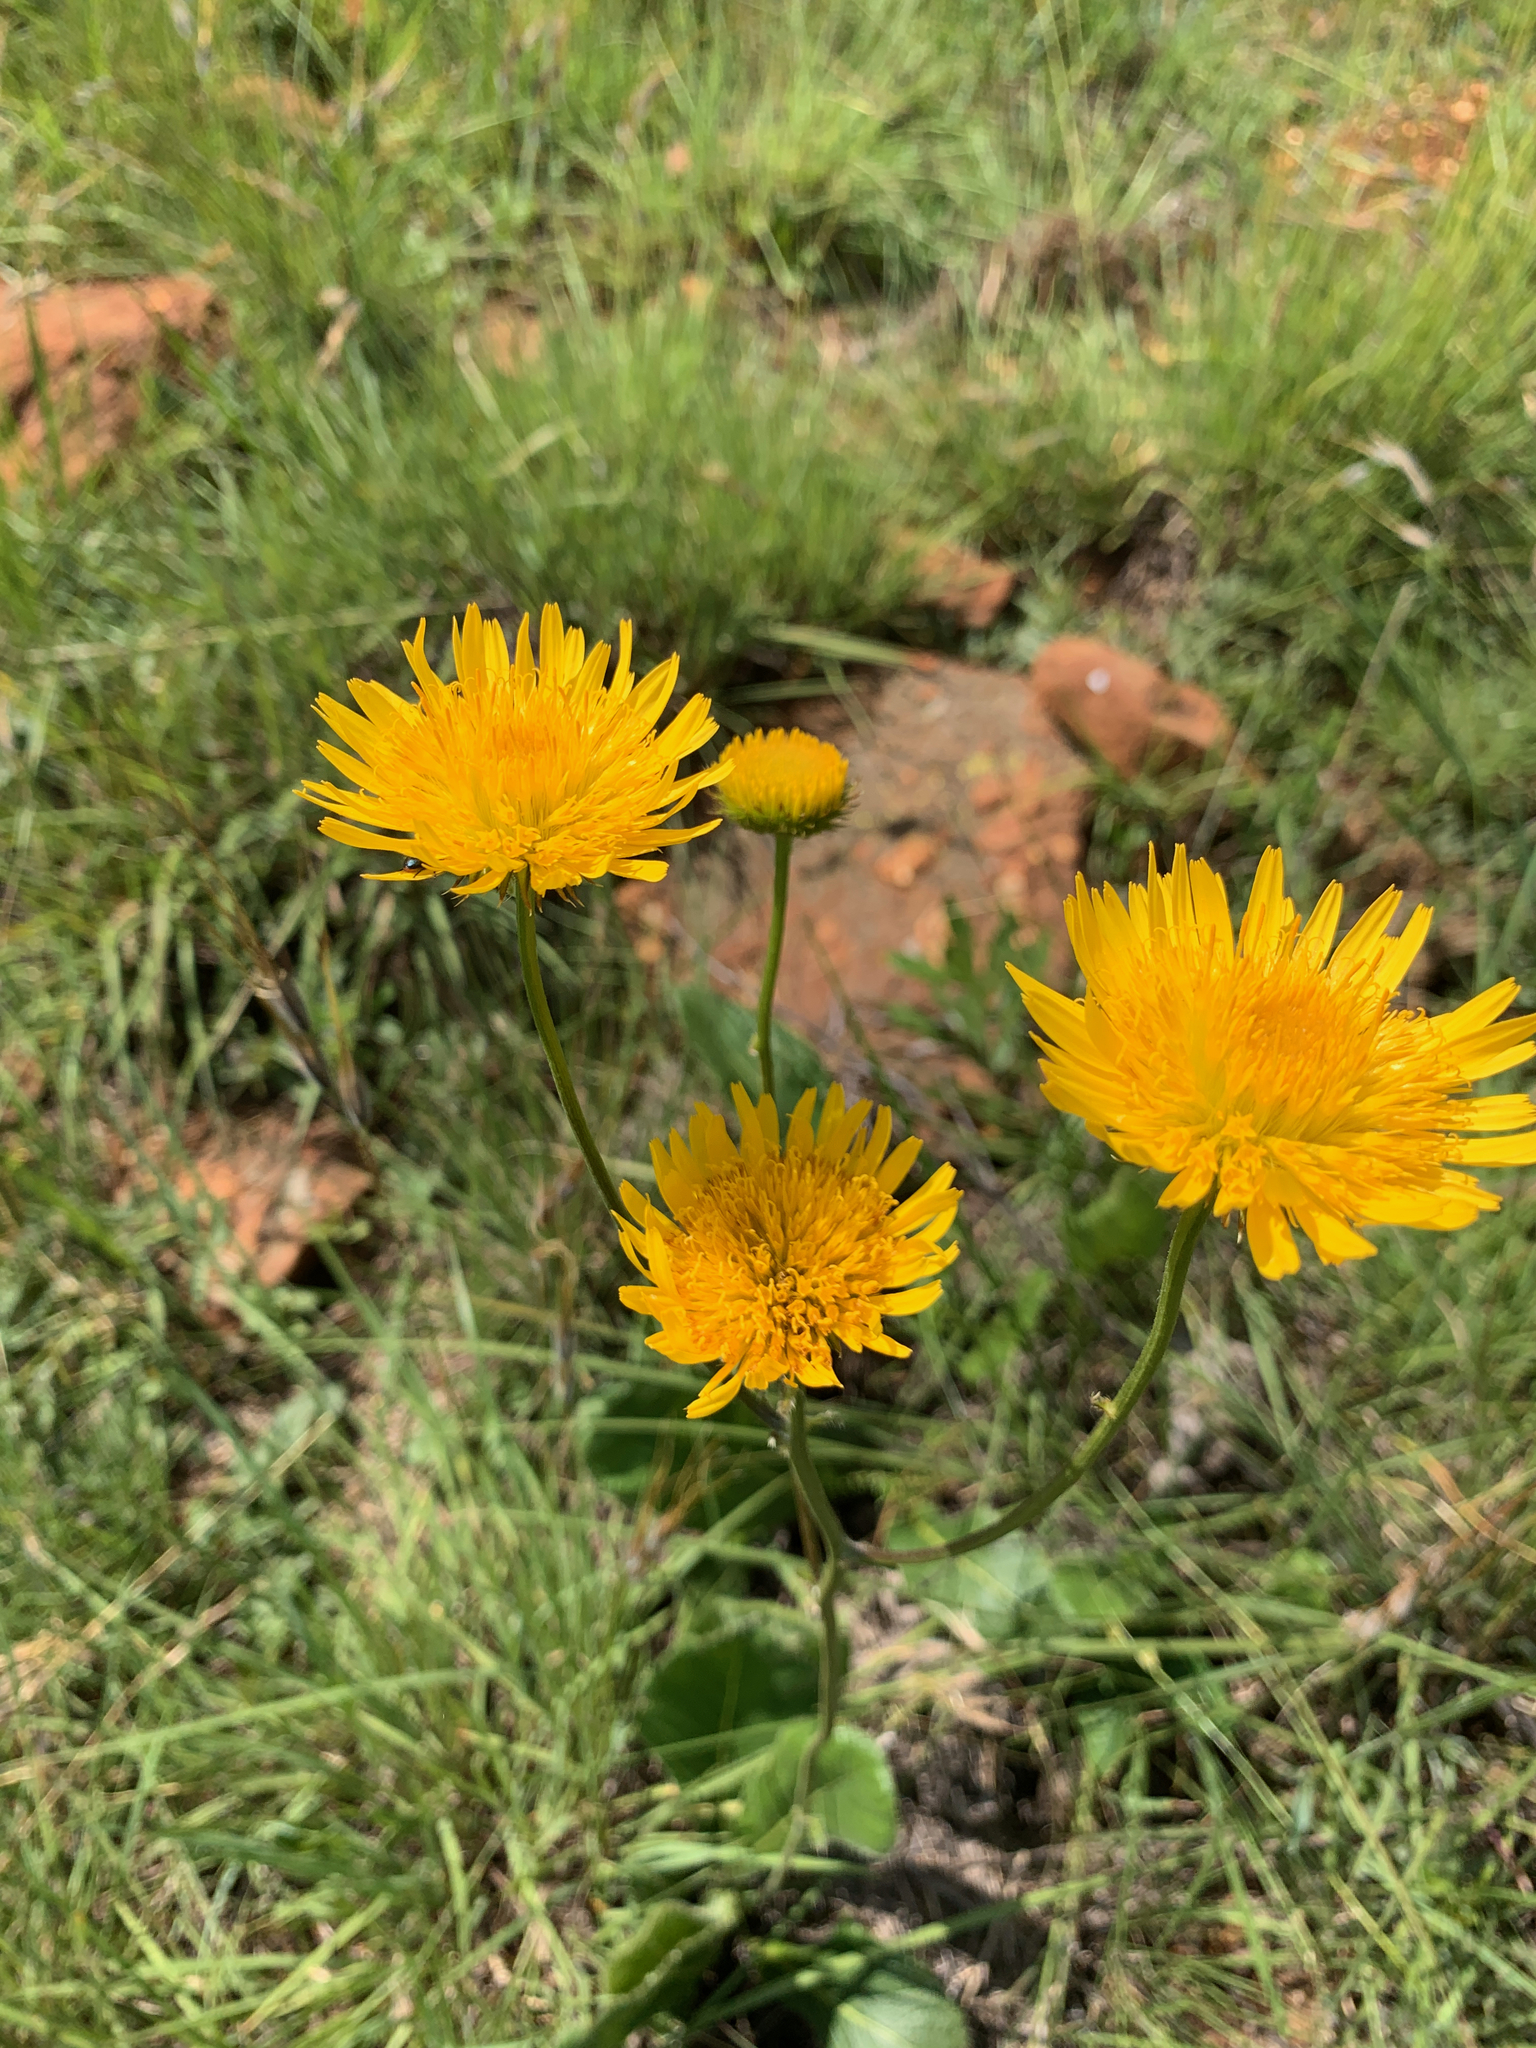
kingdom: Plantae
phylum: Tracheophyta
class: Magnoliopsida
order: Asterales
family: Asteraceae
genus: Berkheya
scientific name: Berkheya setifera
